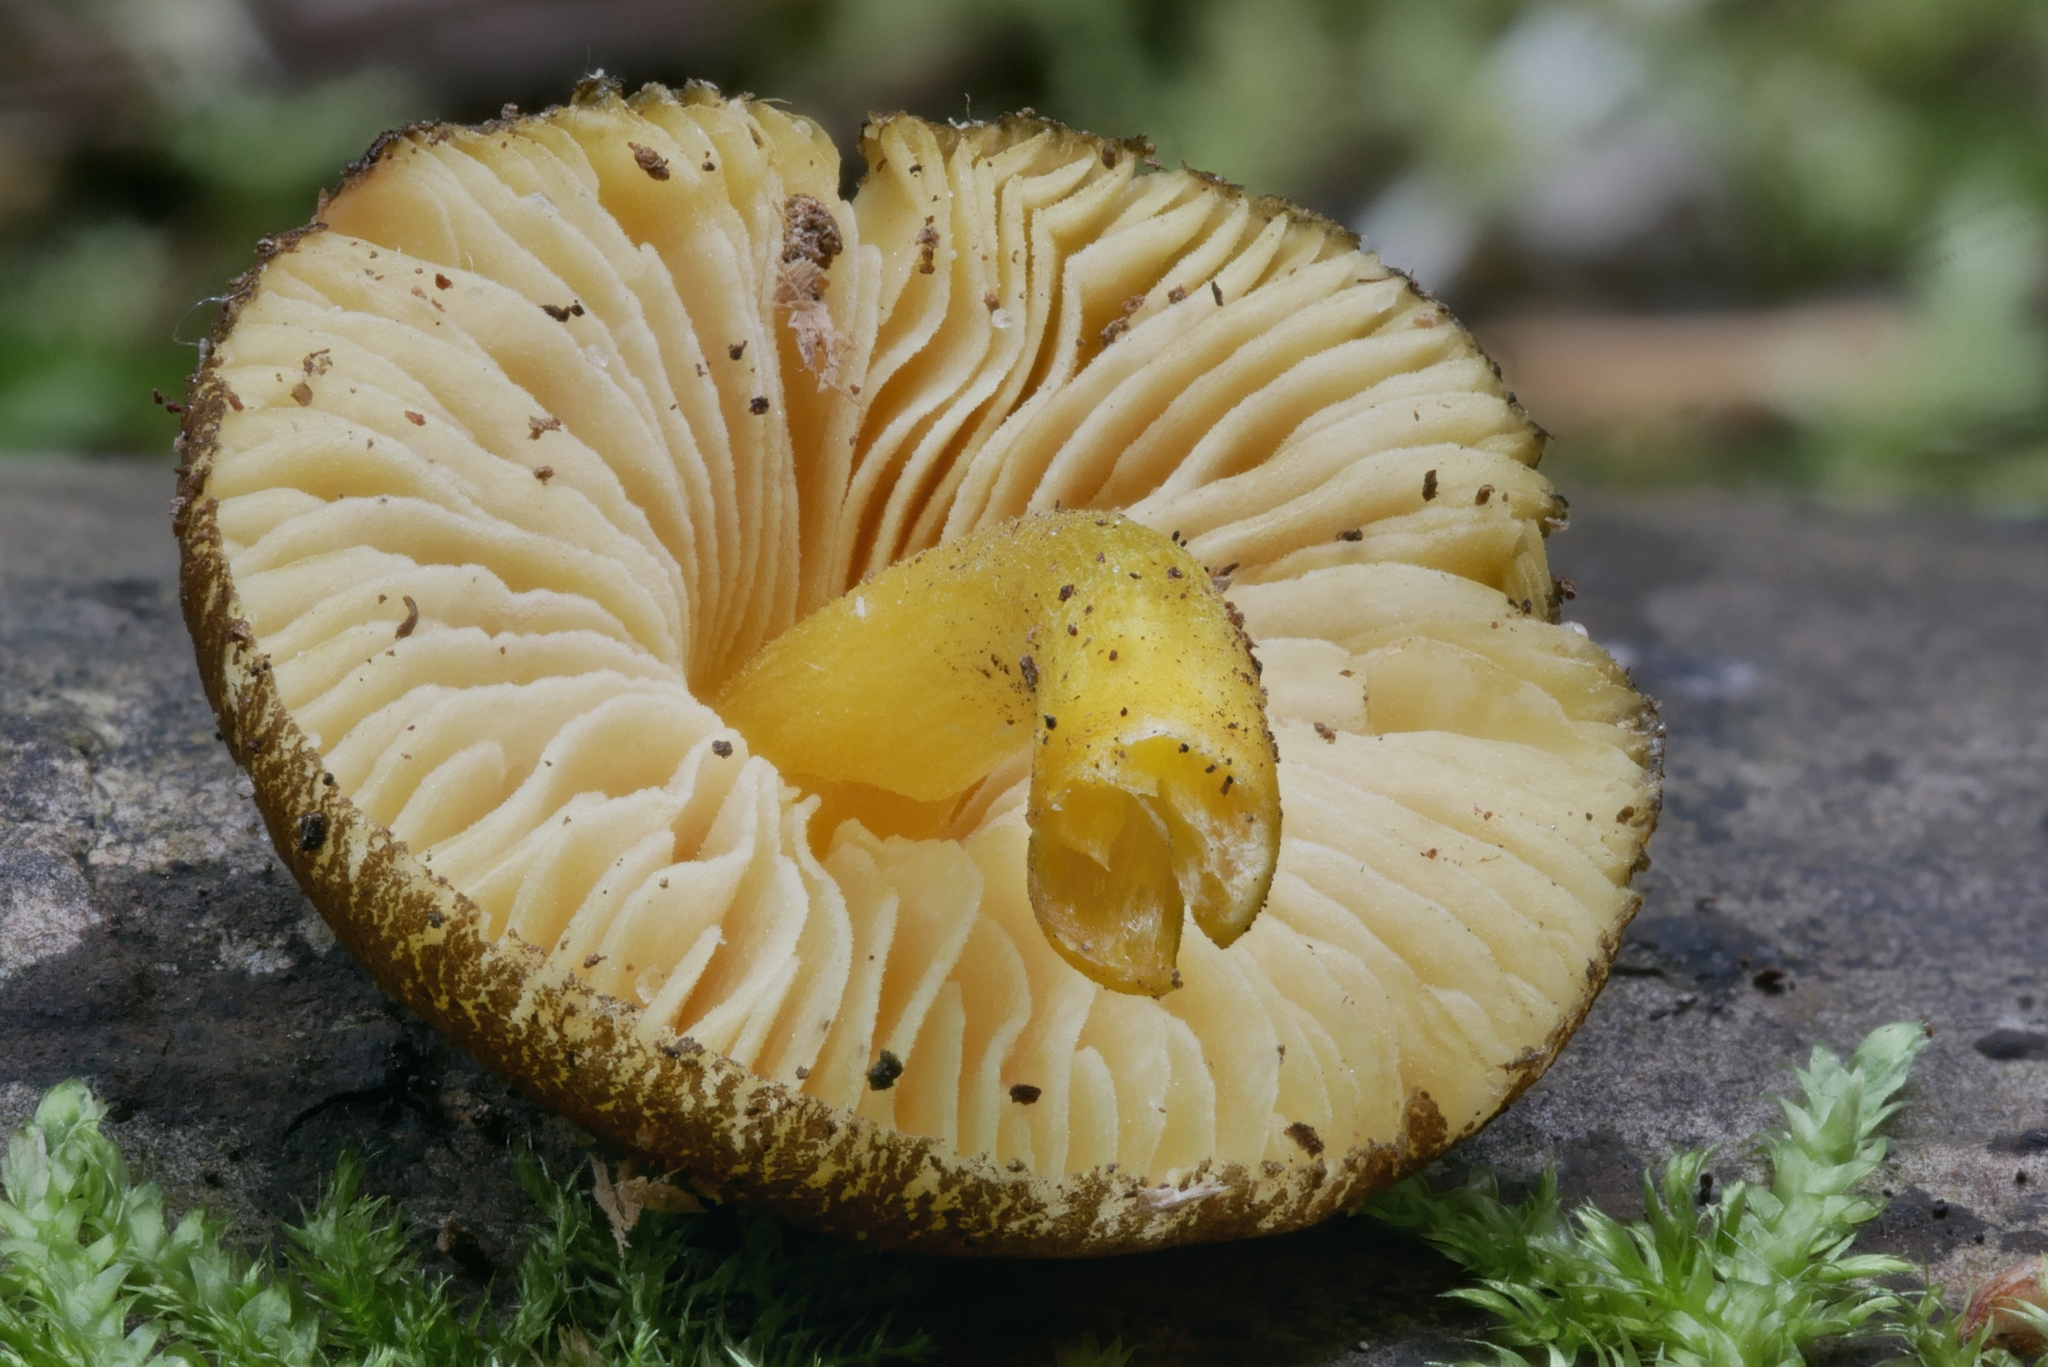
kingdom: Fungi
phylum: Basidiomycota
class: Agaricomycetes
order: Agaricales
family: Pluteaceae
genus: Pluteus
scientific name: Pluteus romellii
